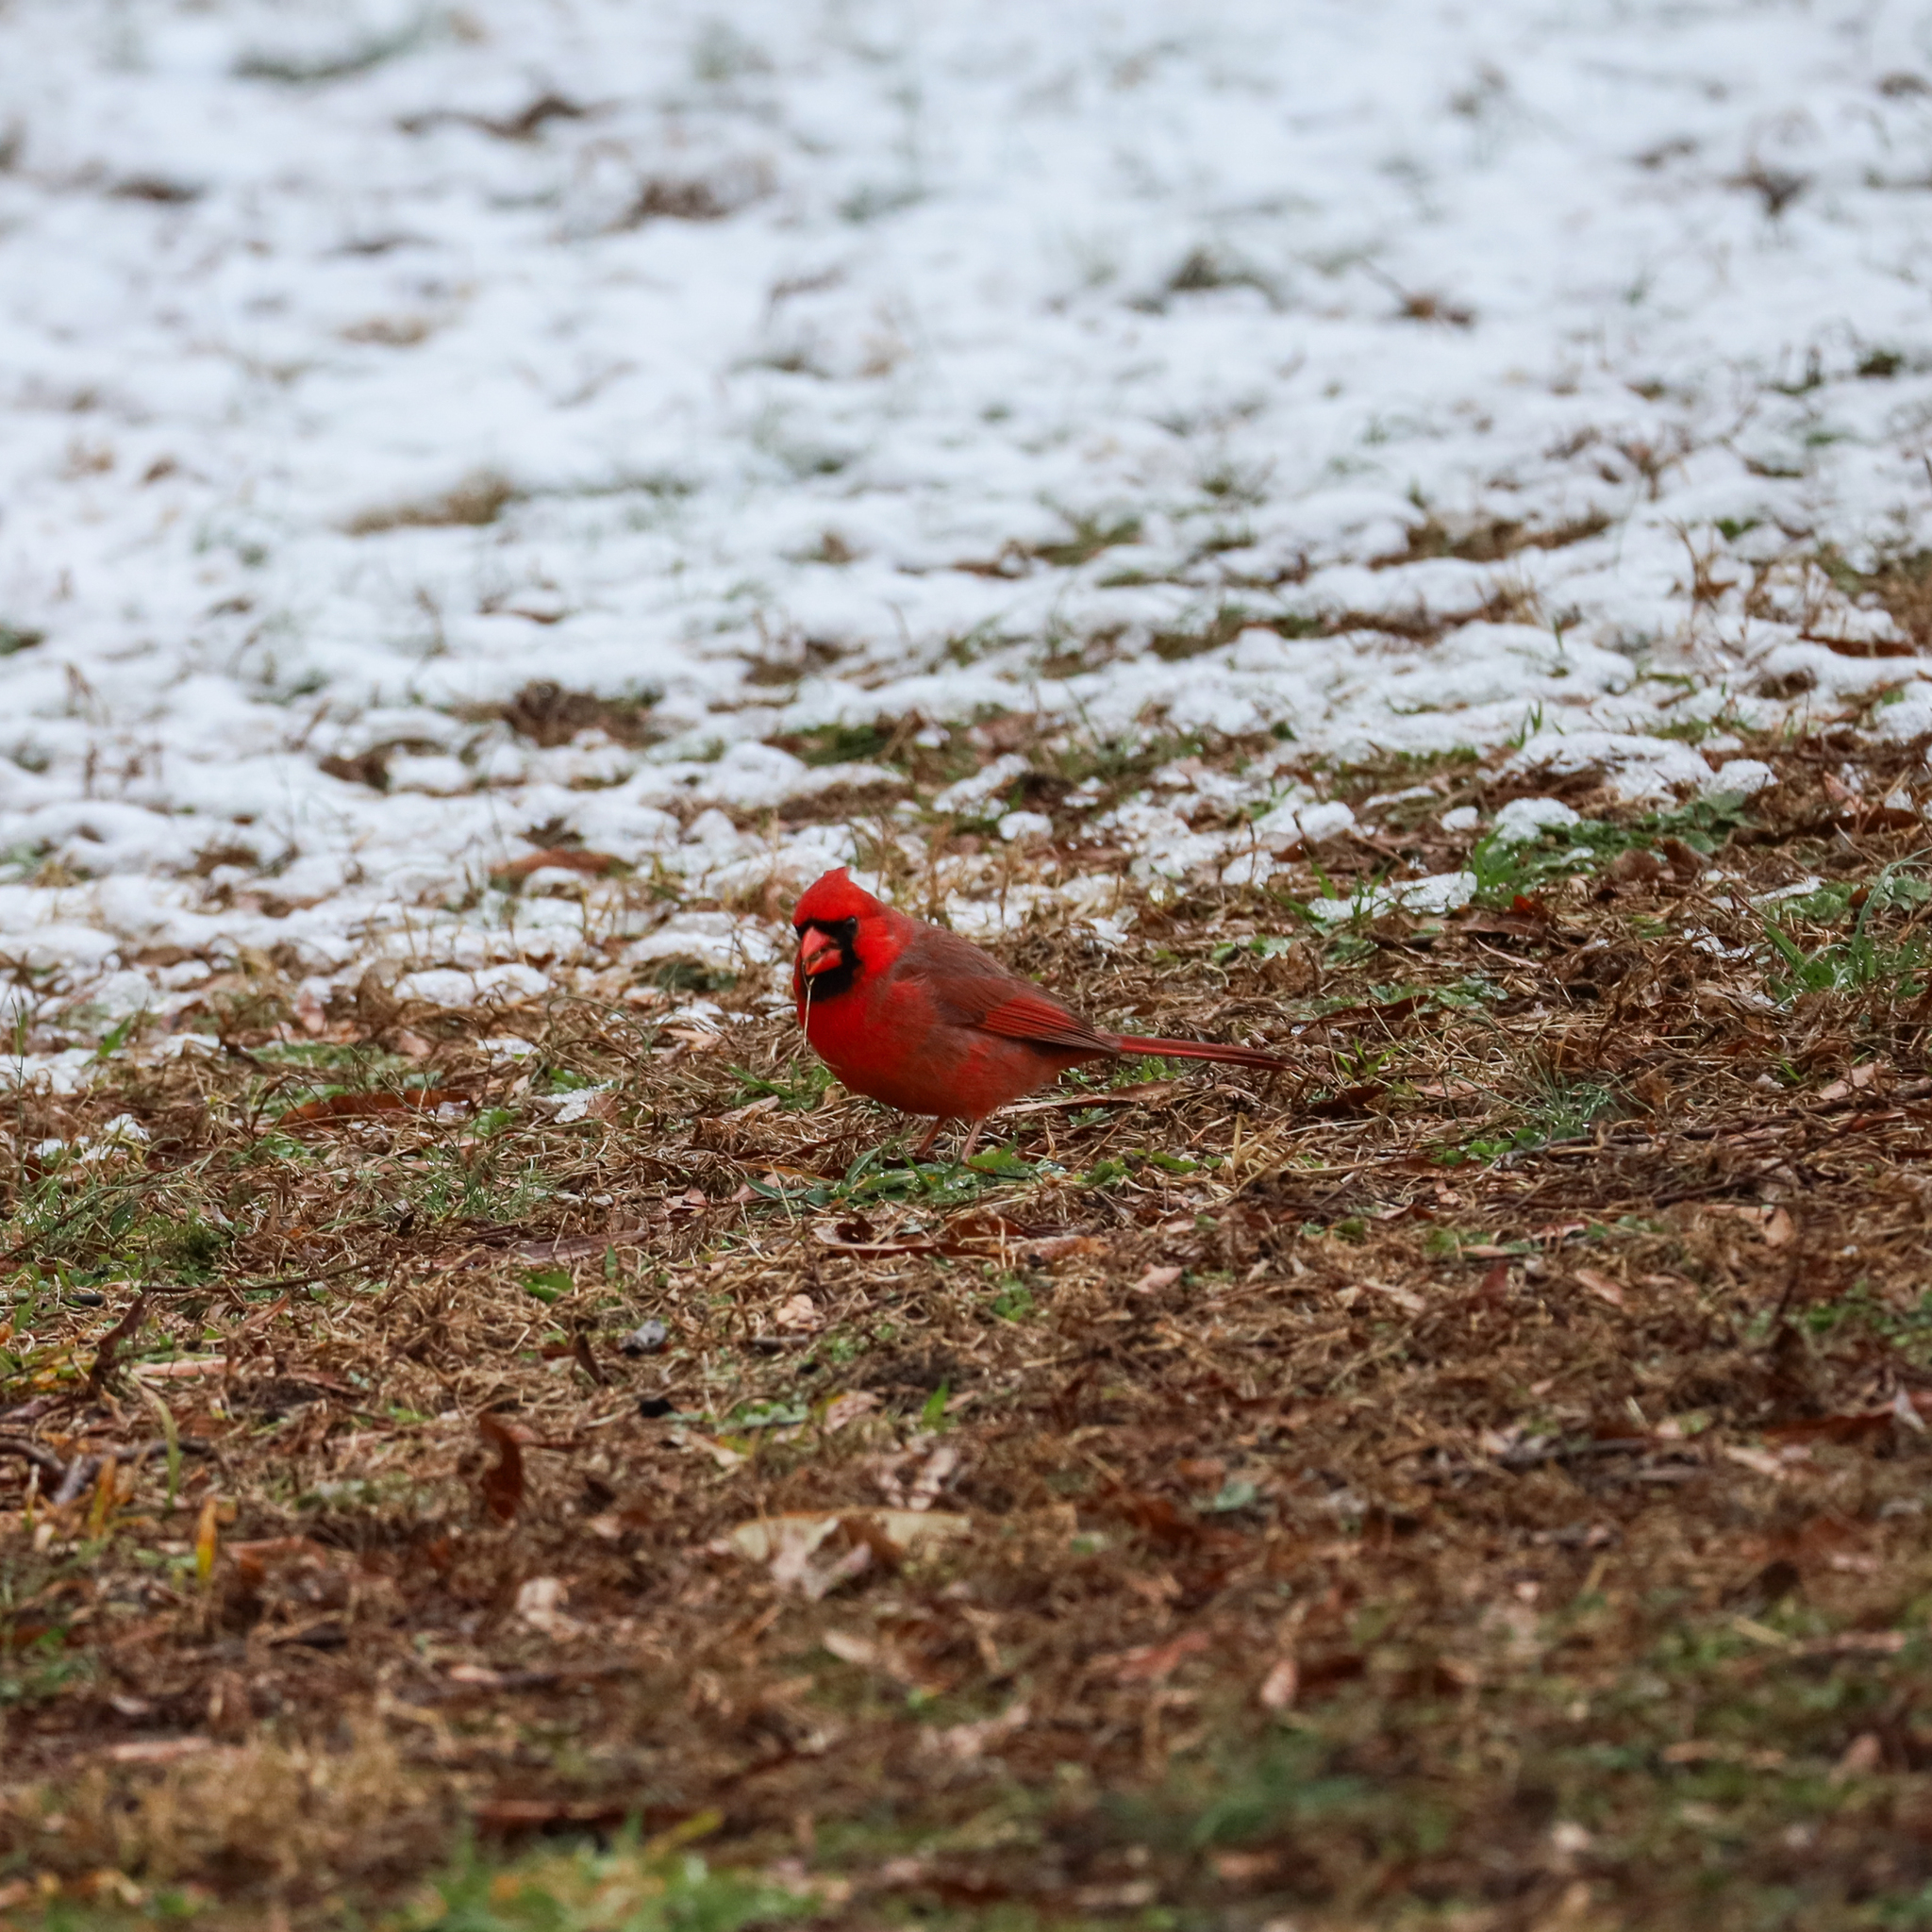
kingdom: Animalia
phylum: Chordata
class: Aves
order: Passeriformes
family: Cardinalidae
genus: Cardinalis
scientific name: Cardinalis cardinalis
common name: Northern cardinal
